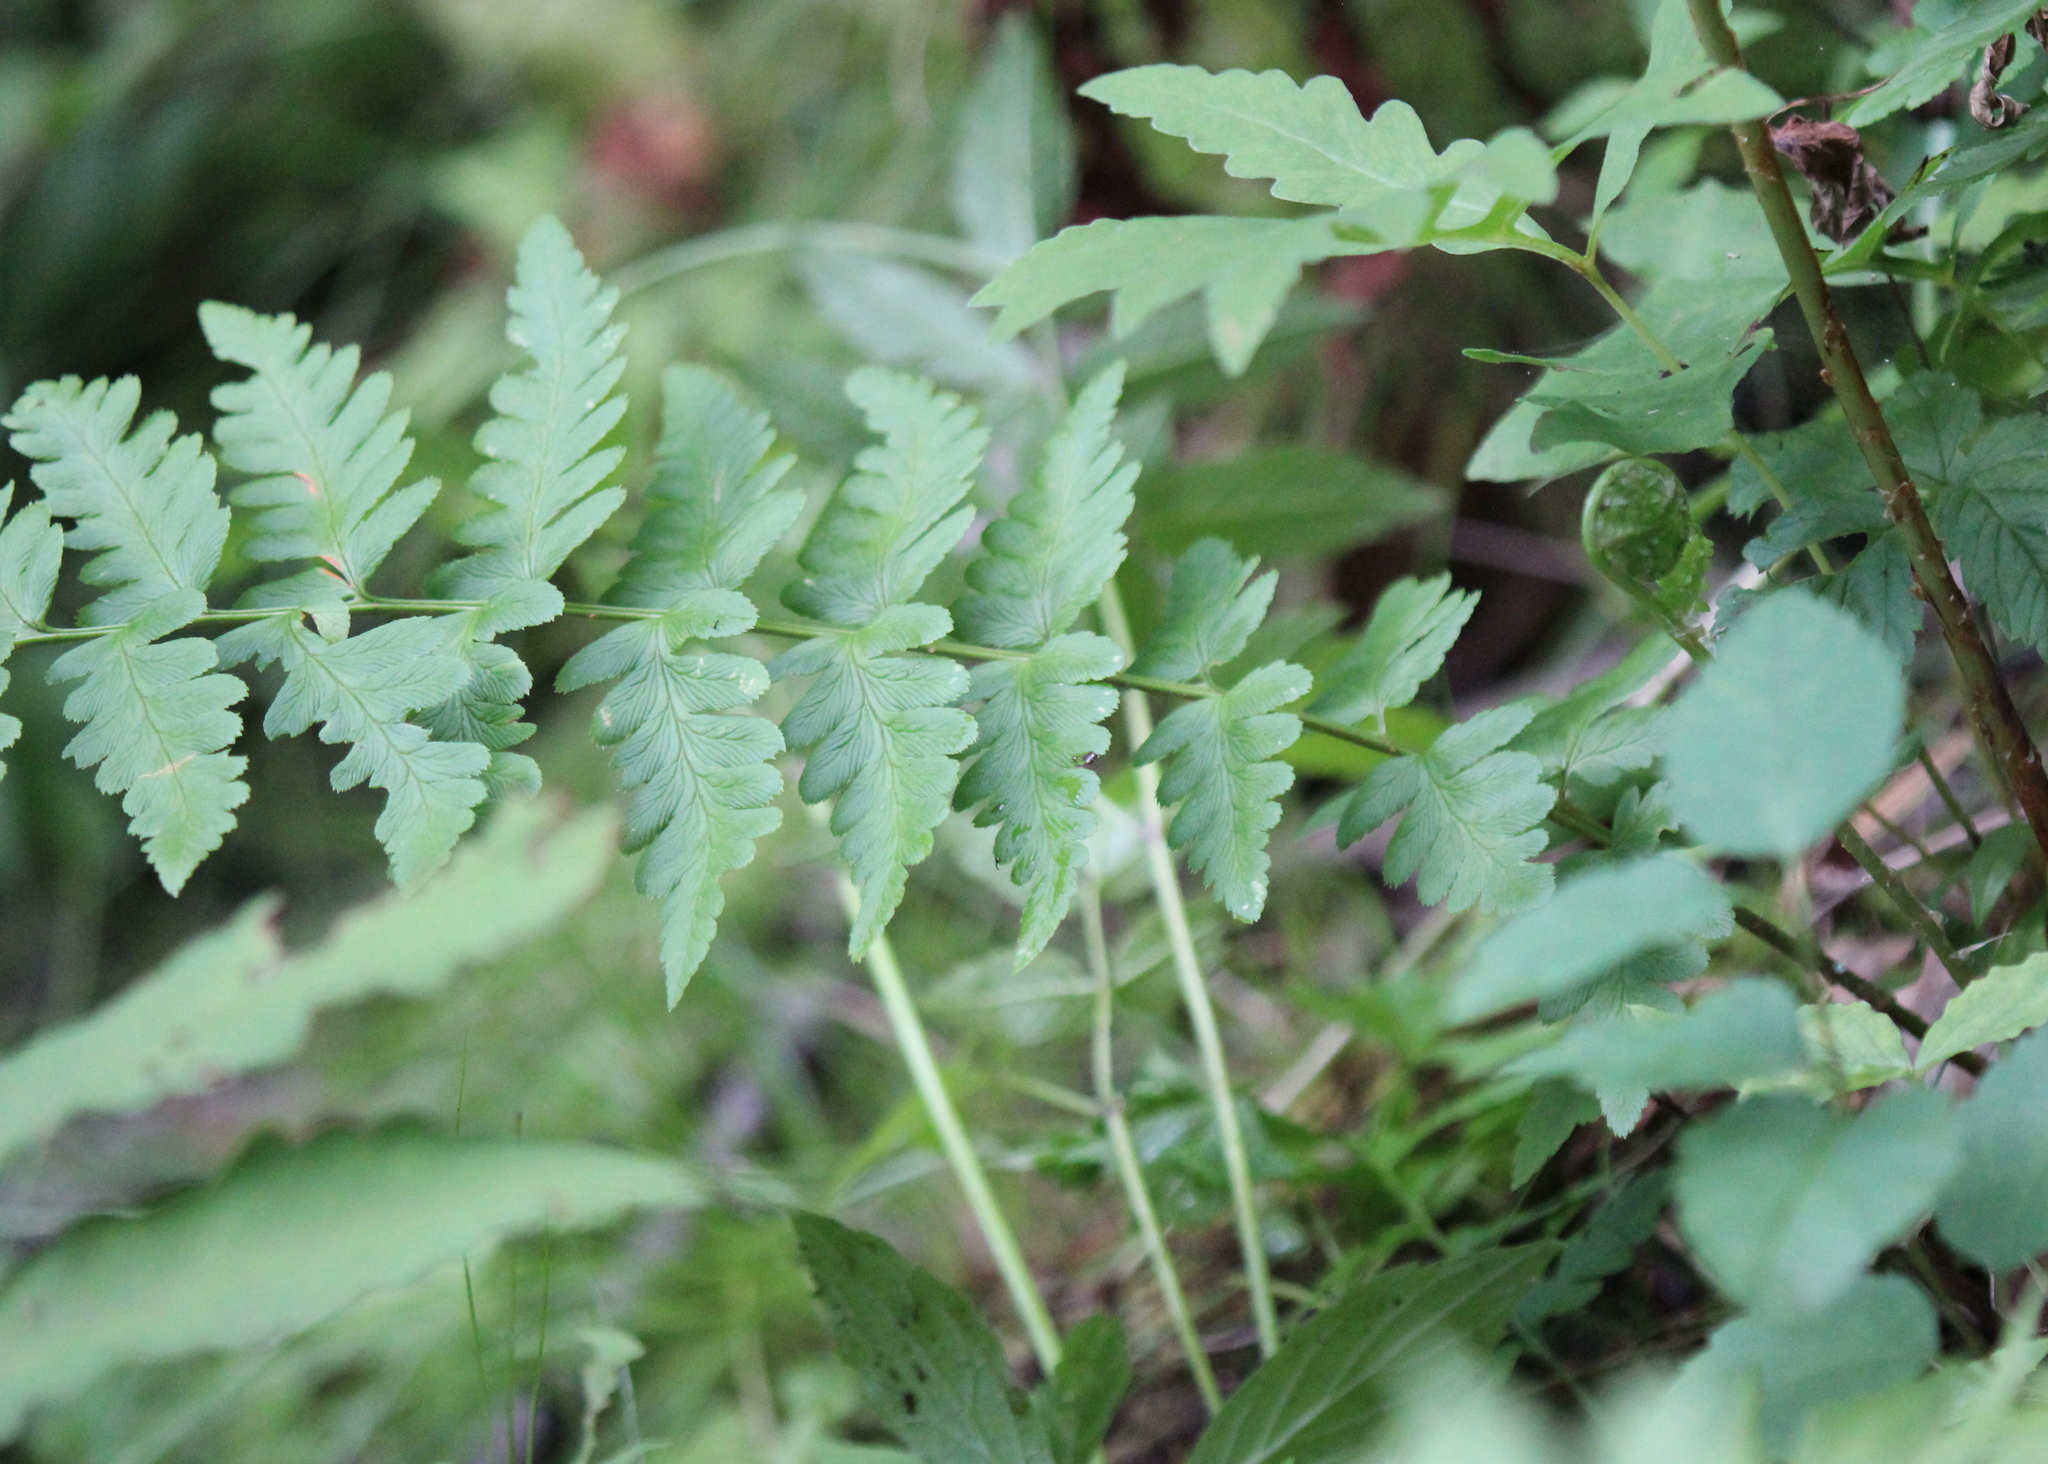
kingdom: Plantae
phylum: Tracheophyta
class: Polypodiopsida
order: Polypodiales
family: Dryopteridaceae
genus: Dryopteris
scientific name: Dryopteris cristata
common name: Crested wood fern
